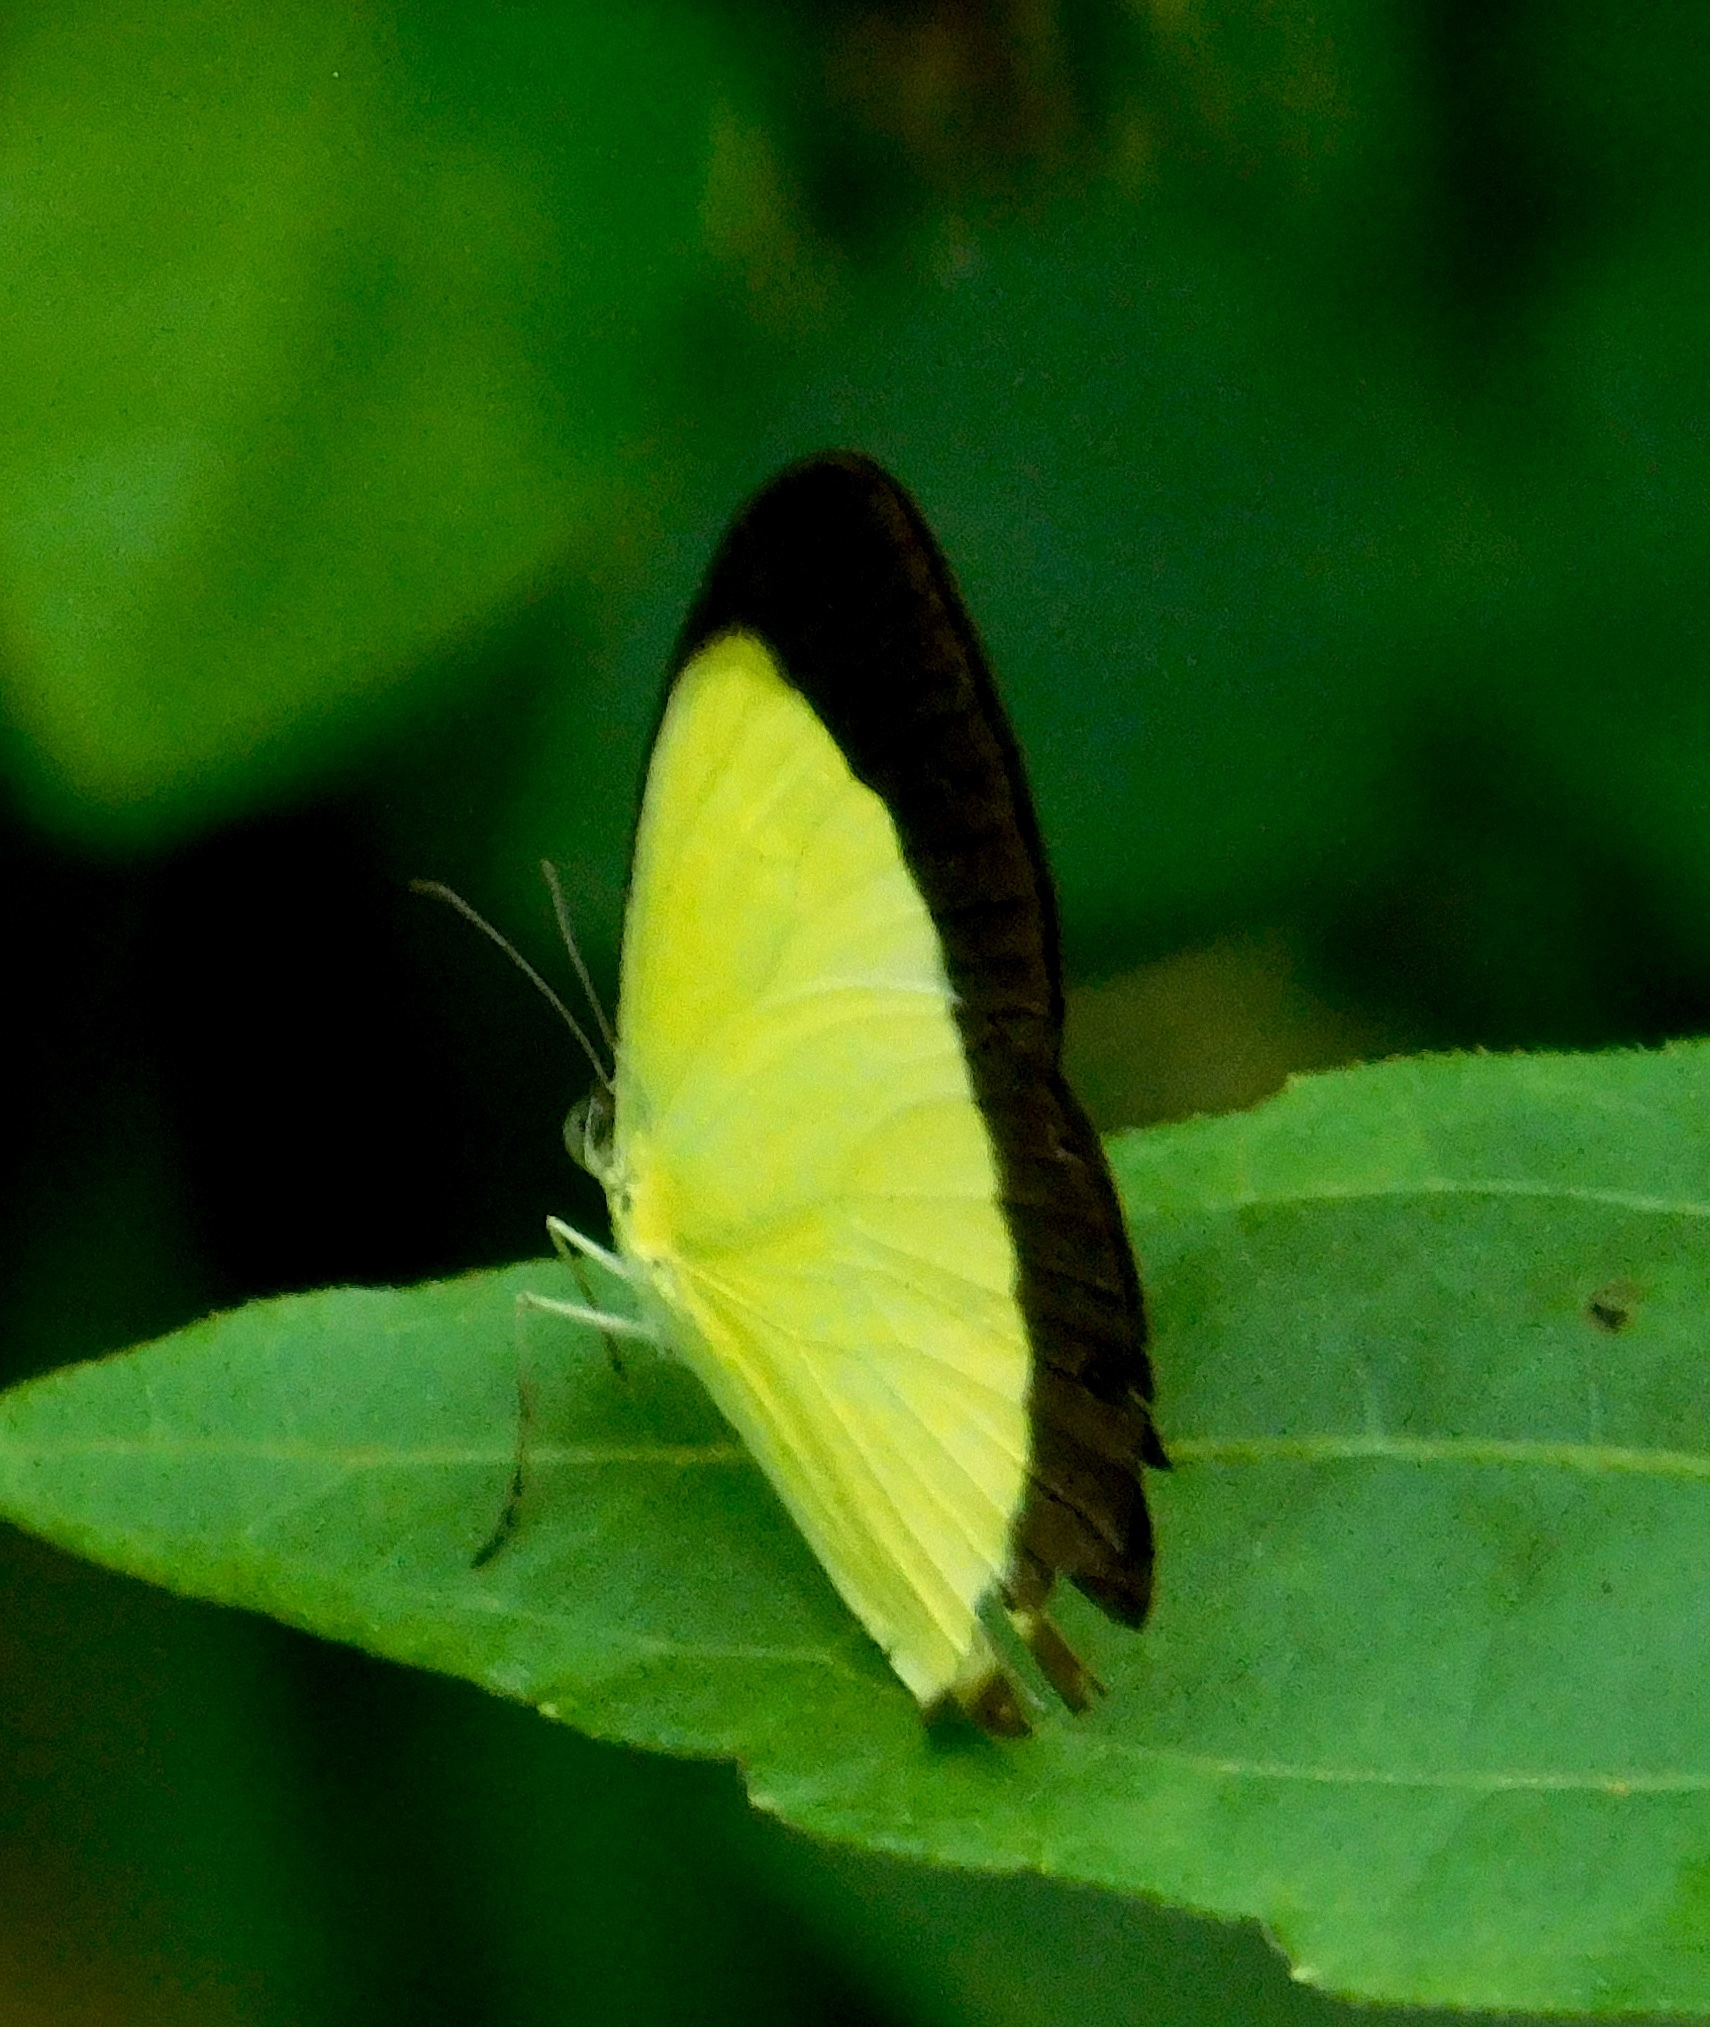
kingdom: Animalia
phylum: Arthropoda
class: Insecta
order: Lepidoptera
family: Pieridae
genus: Eurema
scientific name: Eurema puella
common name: Broad margined grass yellow
